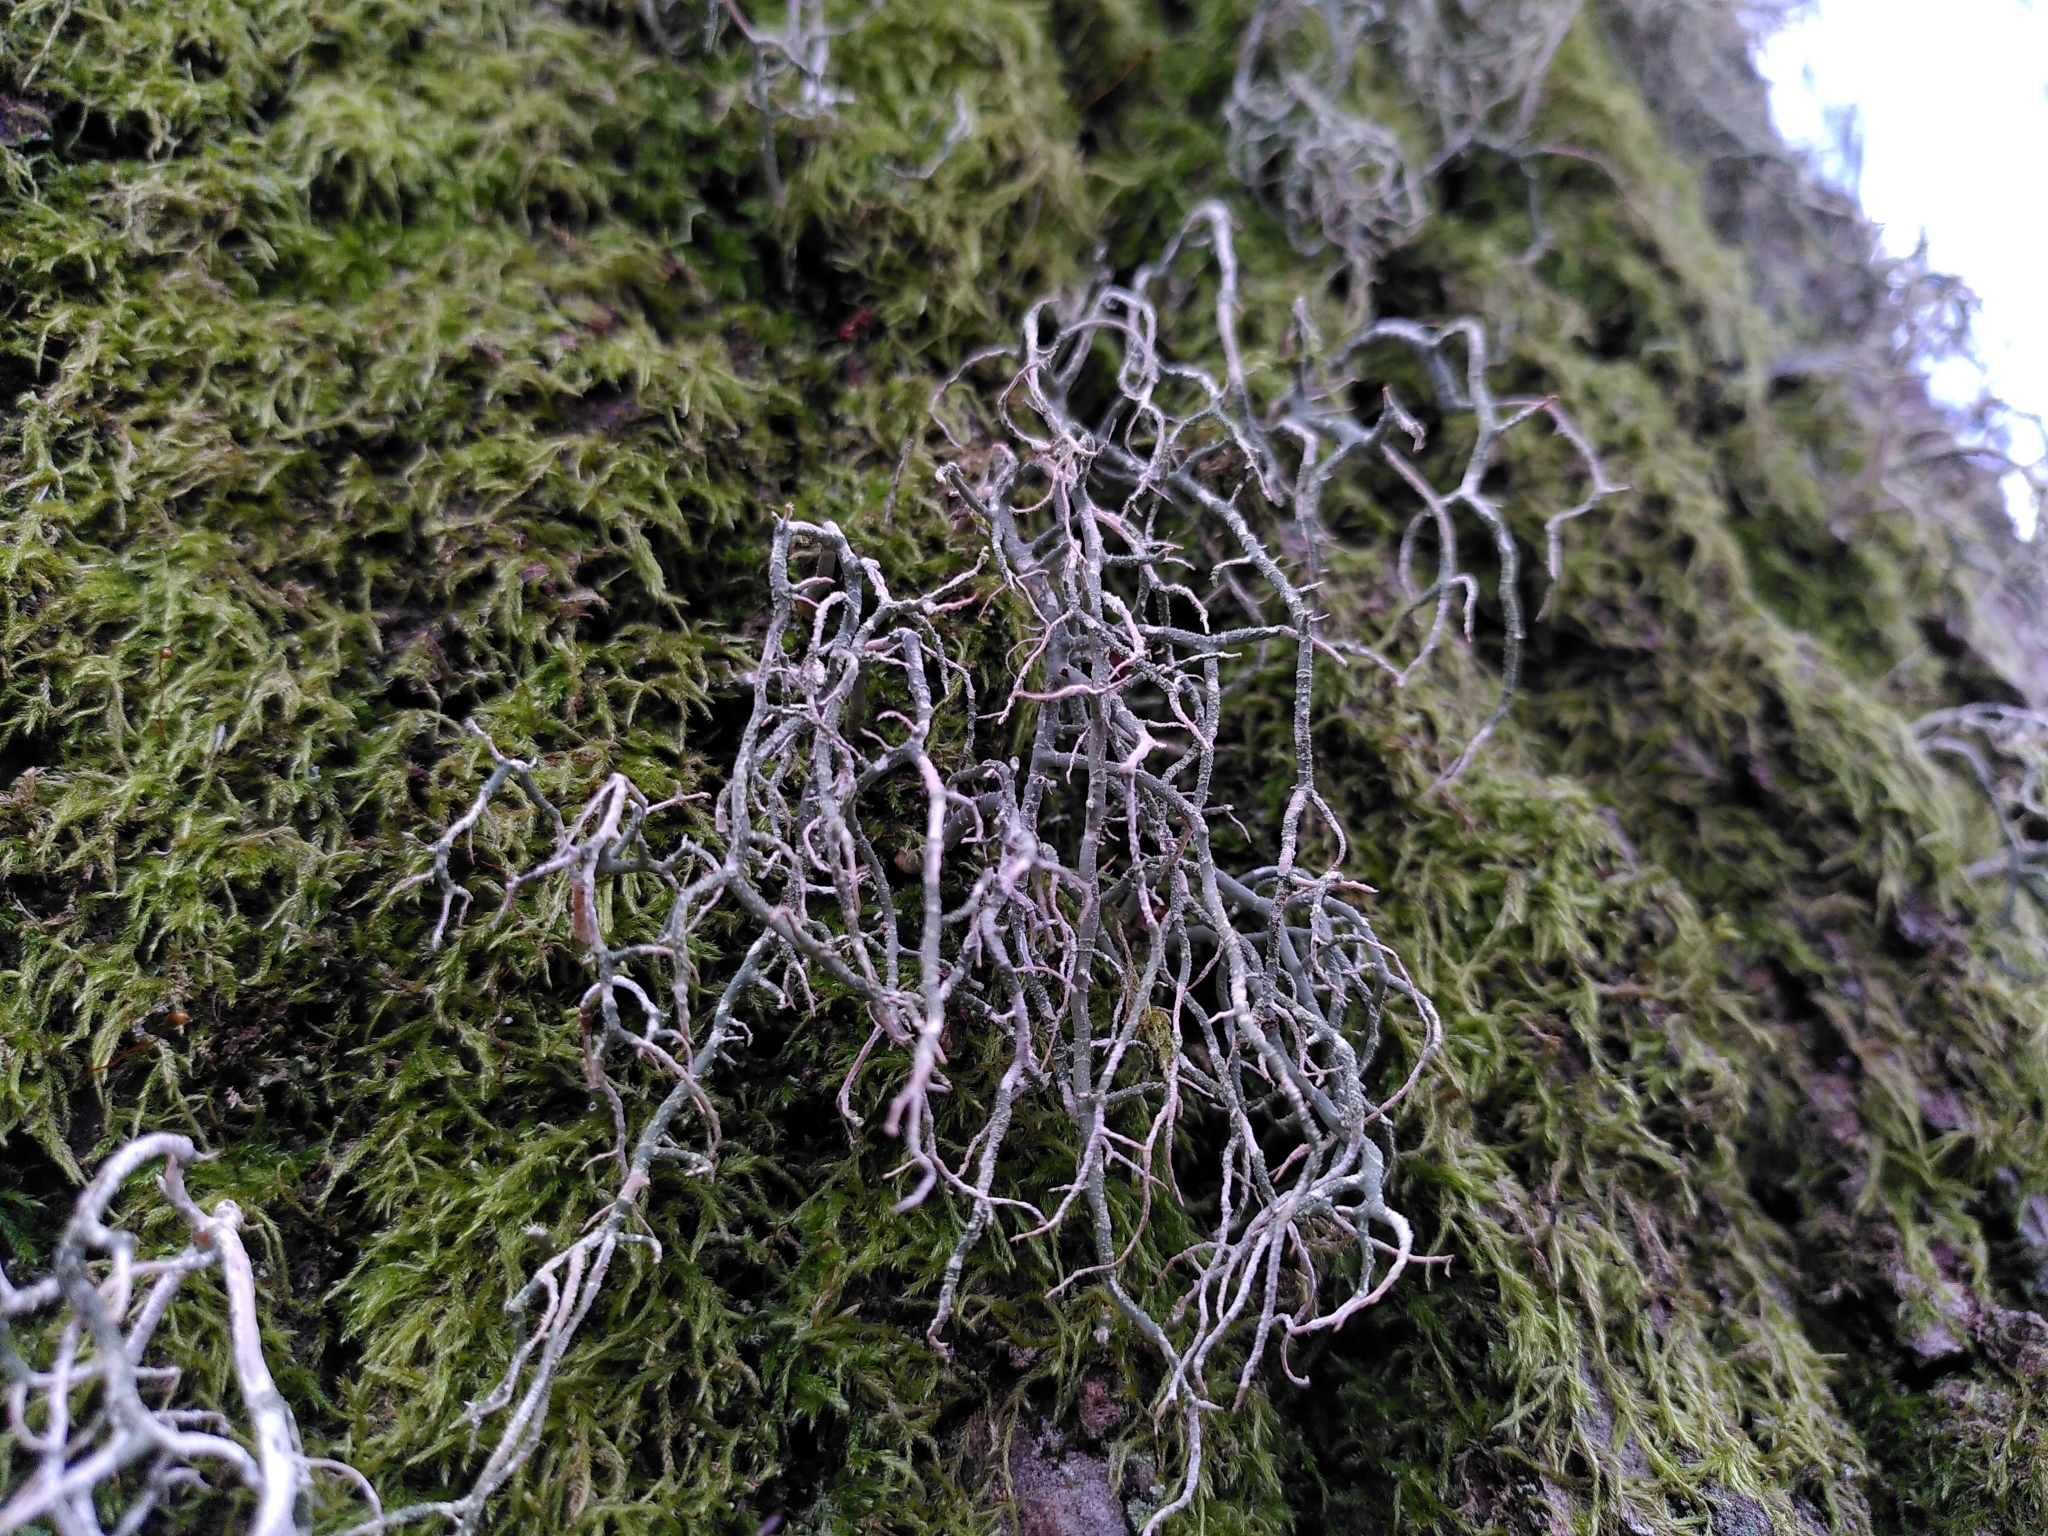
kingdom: Fungi
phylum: Ascomycota
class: Lecanoromycetes
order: Lecanorales
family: Parmeliaceae
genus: Usnea
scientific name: Usnea ceratina
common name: Warty beard lichen
